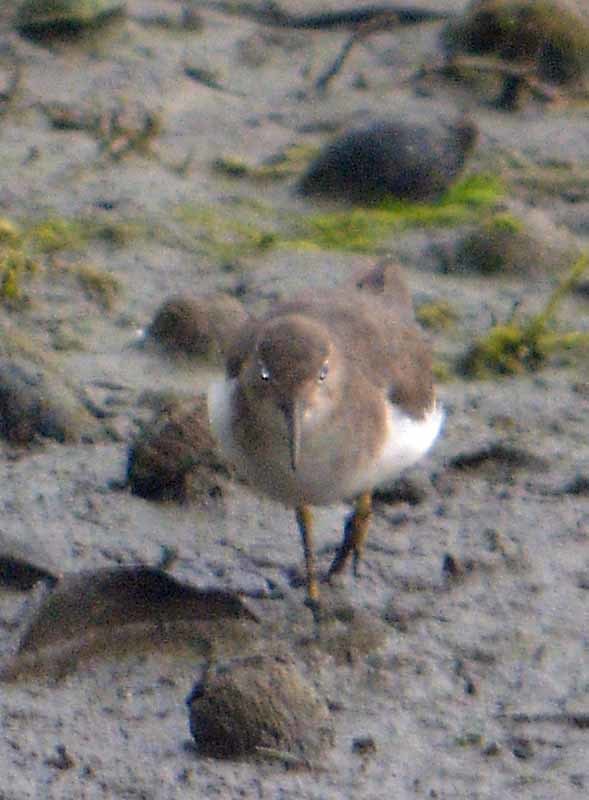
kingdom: Animalia
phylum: Chordata
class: Aves
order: Charadriiformes
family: Scolopacidae
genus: Actitis
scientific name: Actitis macularius
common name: Spotted sandpiper
